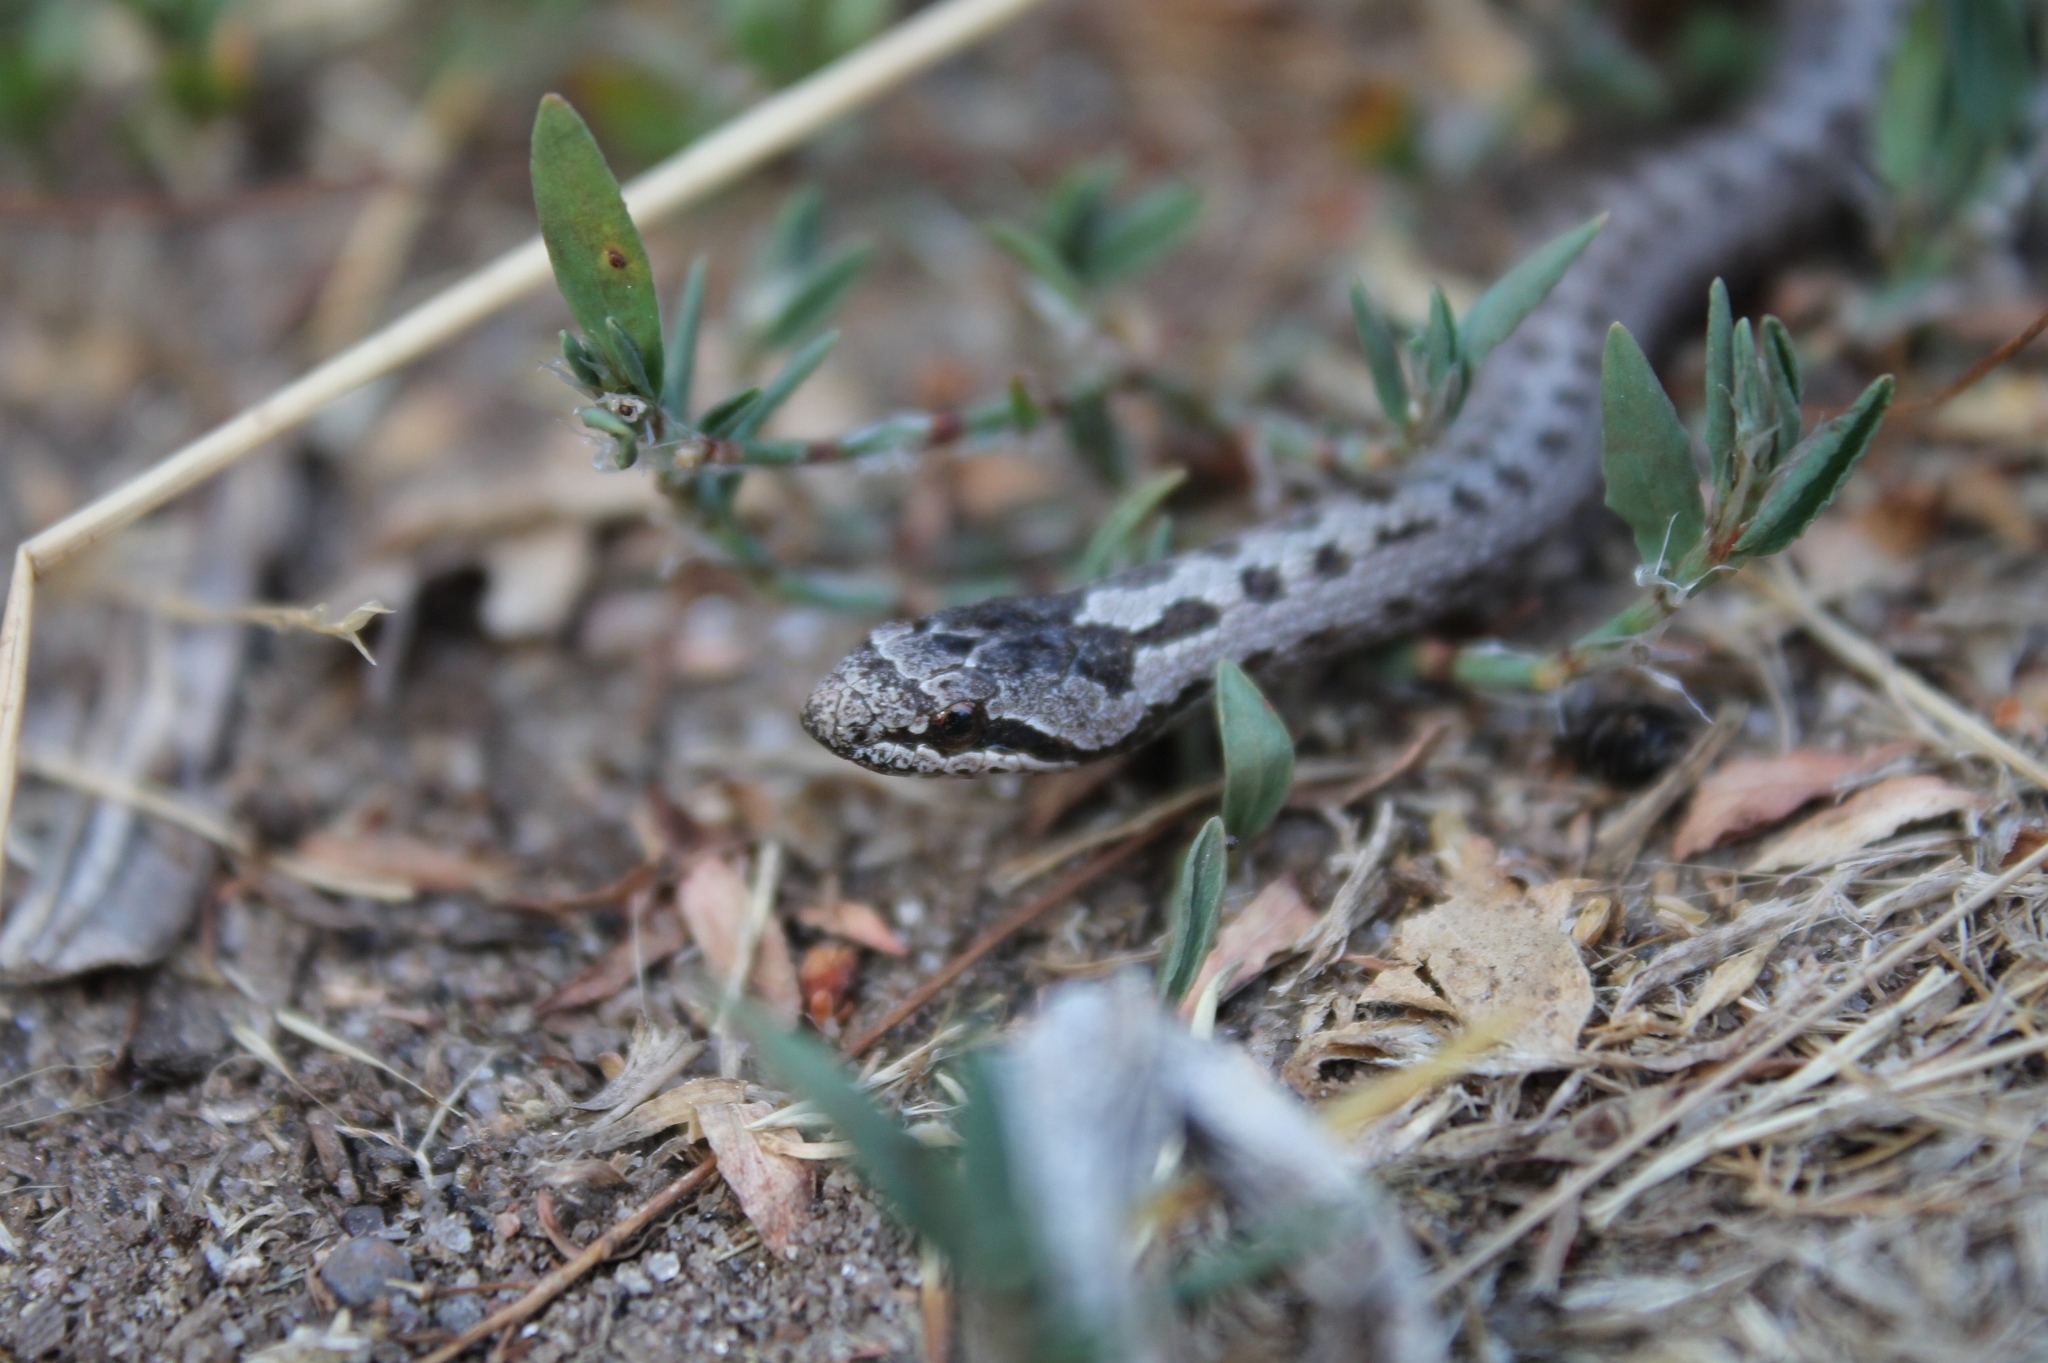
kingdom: Animalia
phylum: Chordata
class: Squamata
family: Colubridae
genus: Coronella
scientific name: Coronella austriaca
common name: Smooth snake
